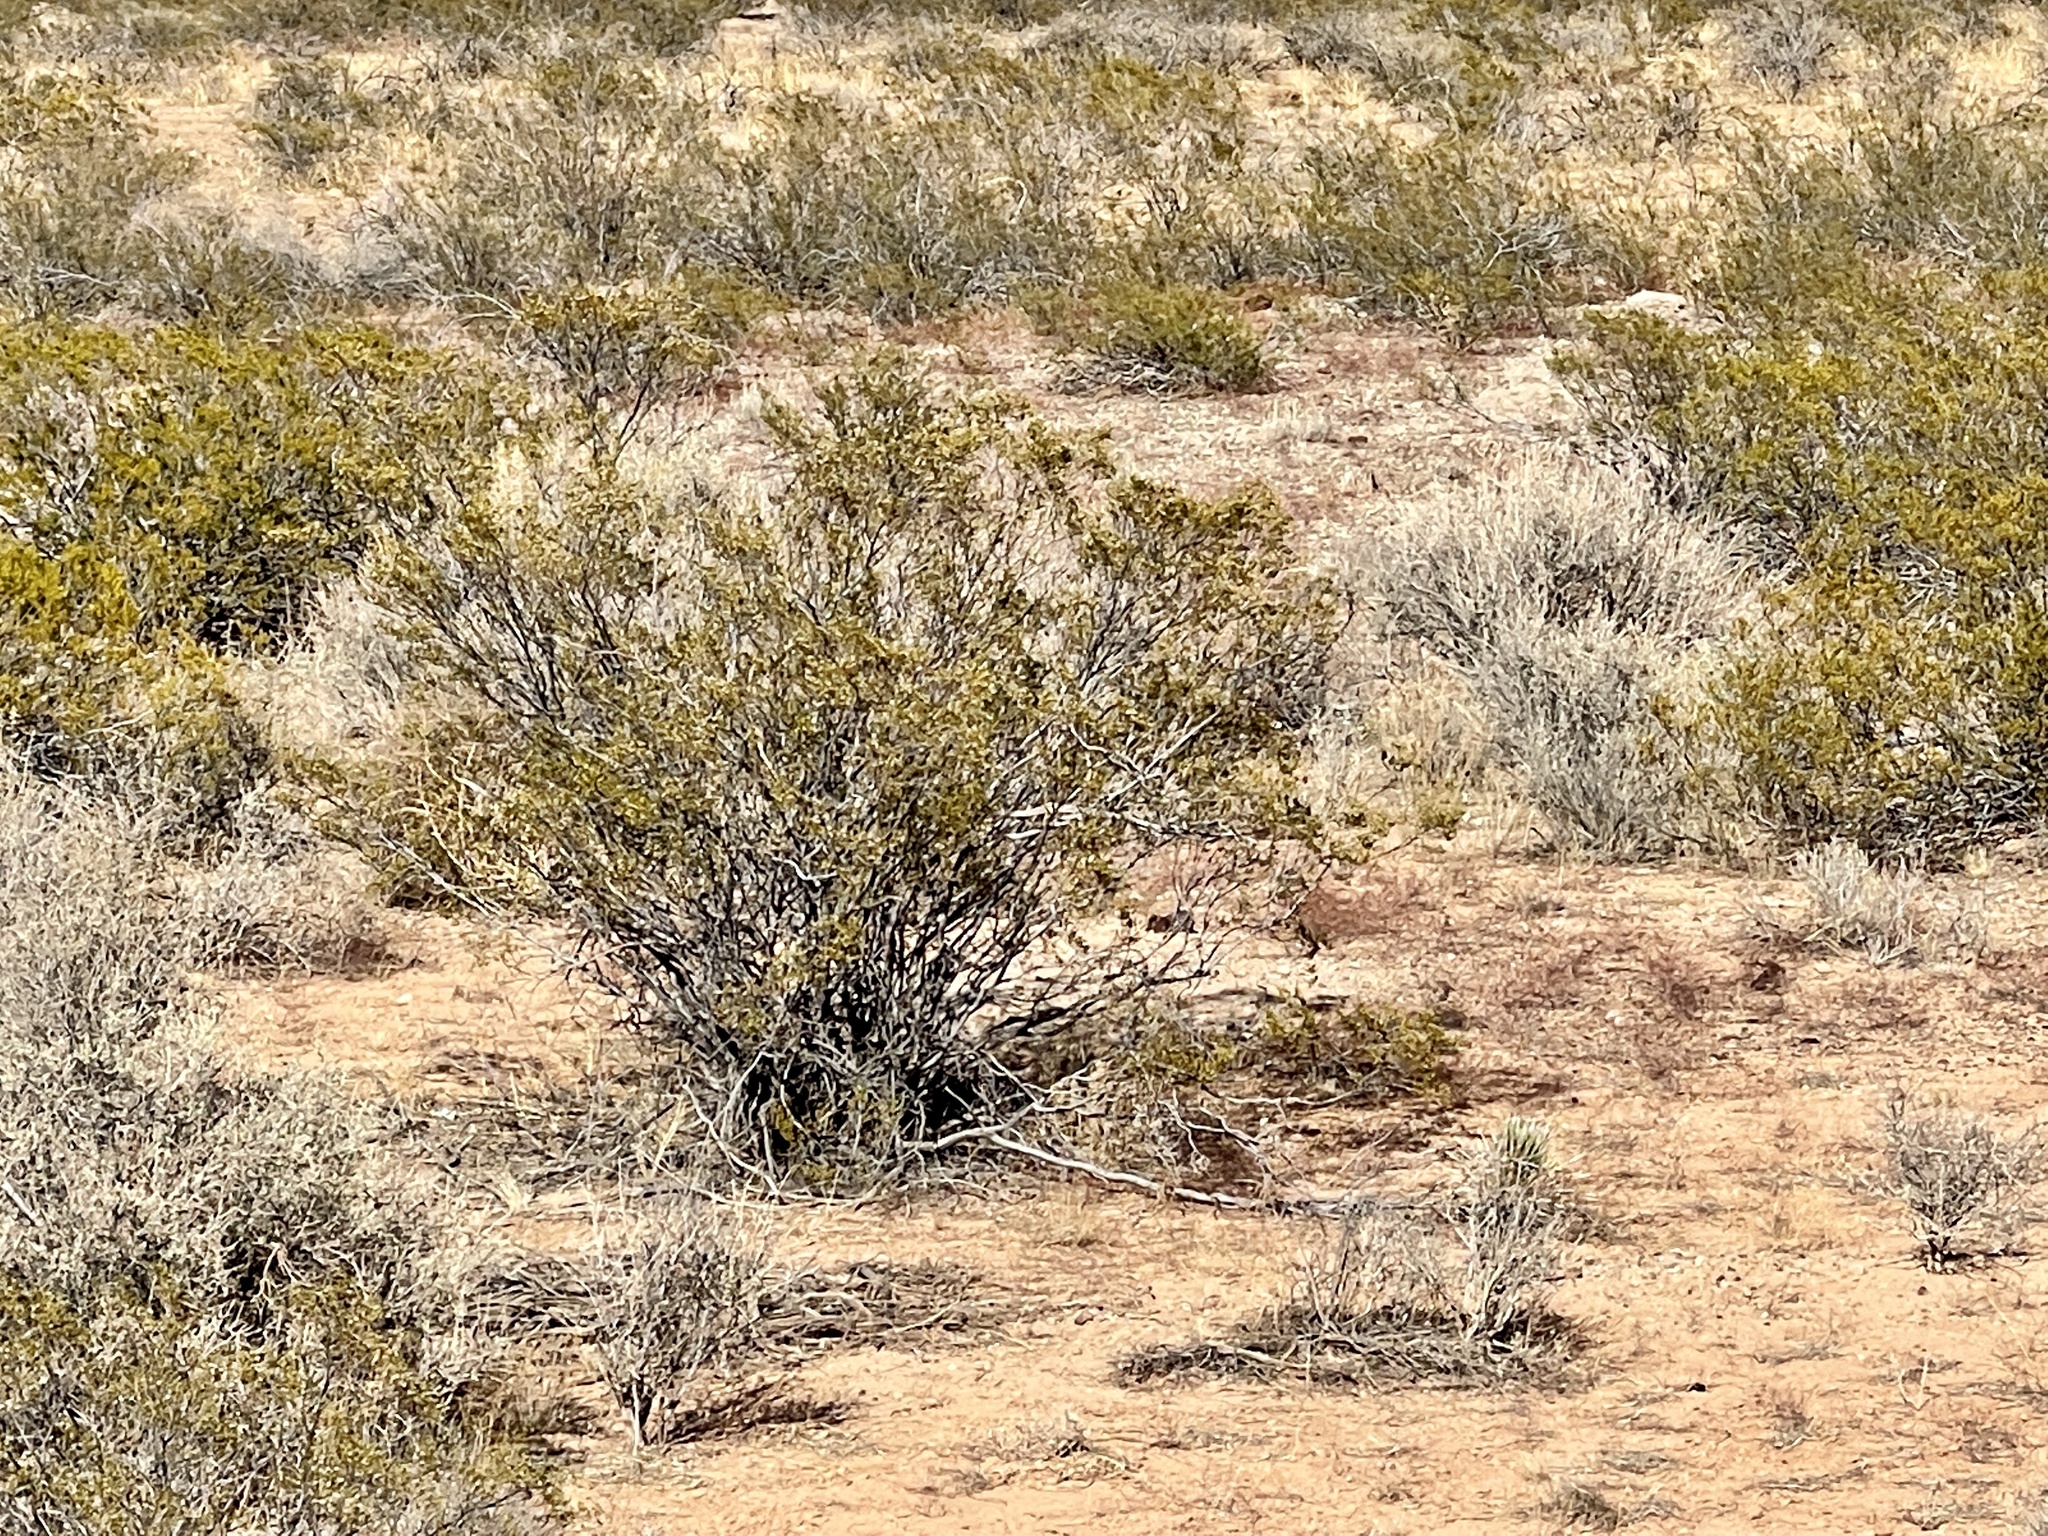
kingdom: Plantae
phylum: Tracheophyta
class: Magnoliopsida
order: Zygophyllales
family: Zygophyllaceae
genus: Larrea
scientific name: Larrea tridentata
